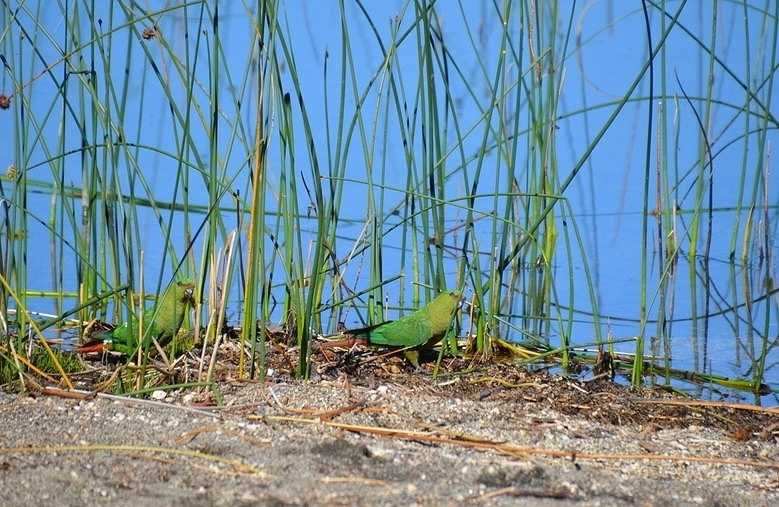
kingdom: Animalia
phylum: Chordata
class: Aves
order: Psittaciformes
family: Psittacidae
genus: Enicognathus
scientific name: Enicognathus ferrugineus
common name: Austral parakeet
